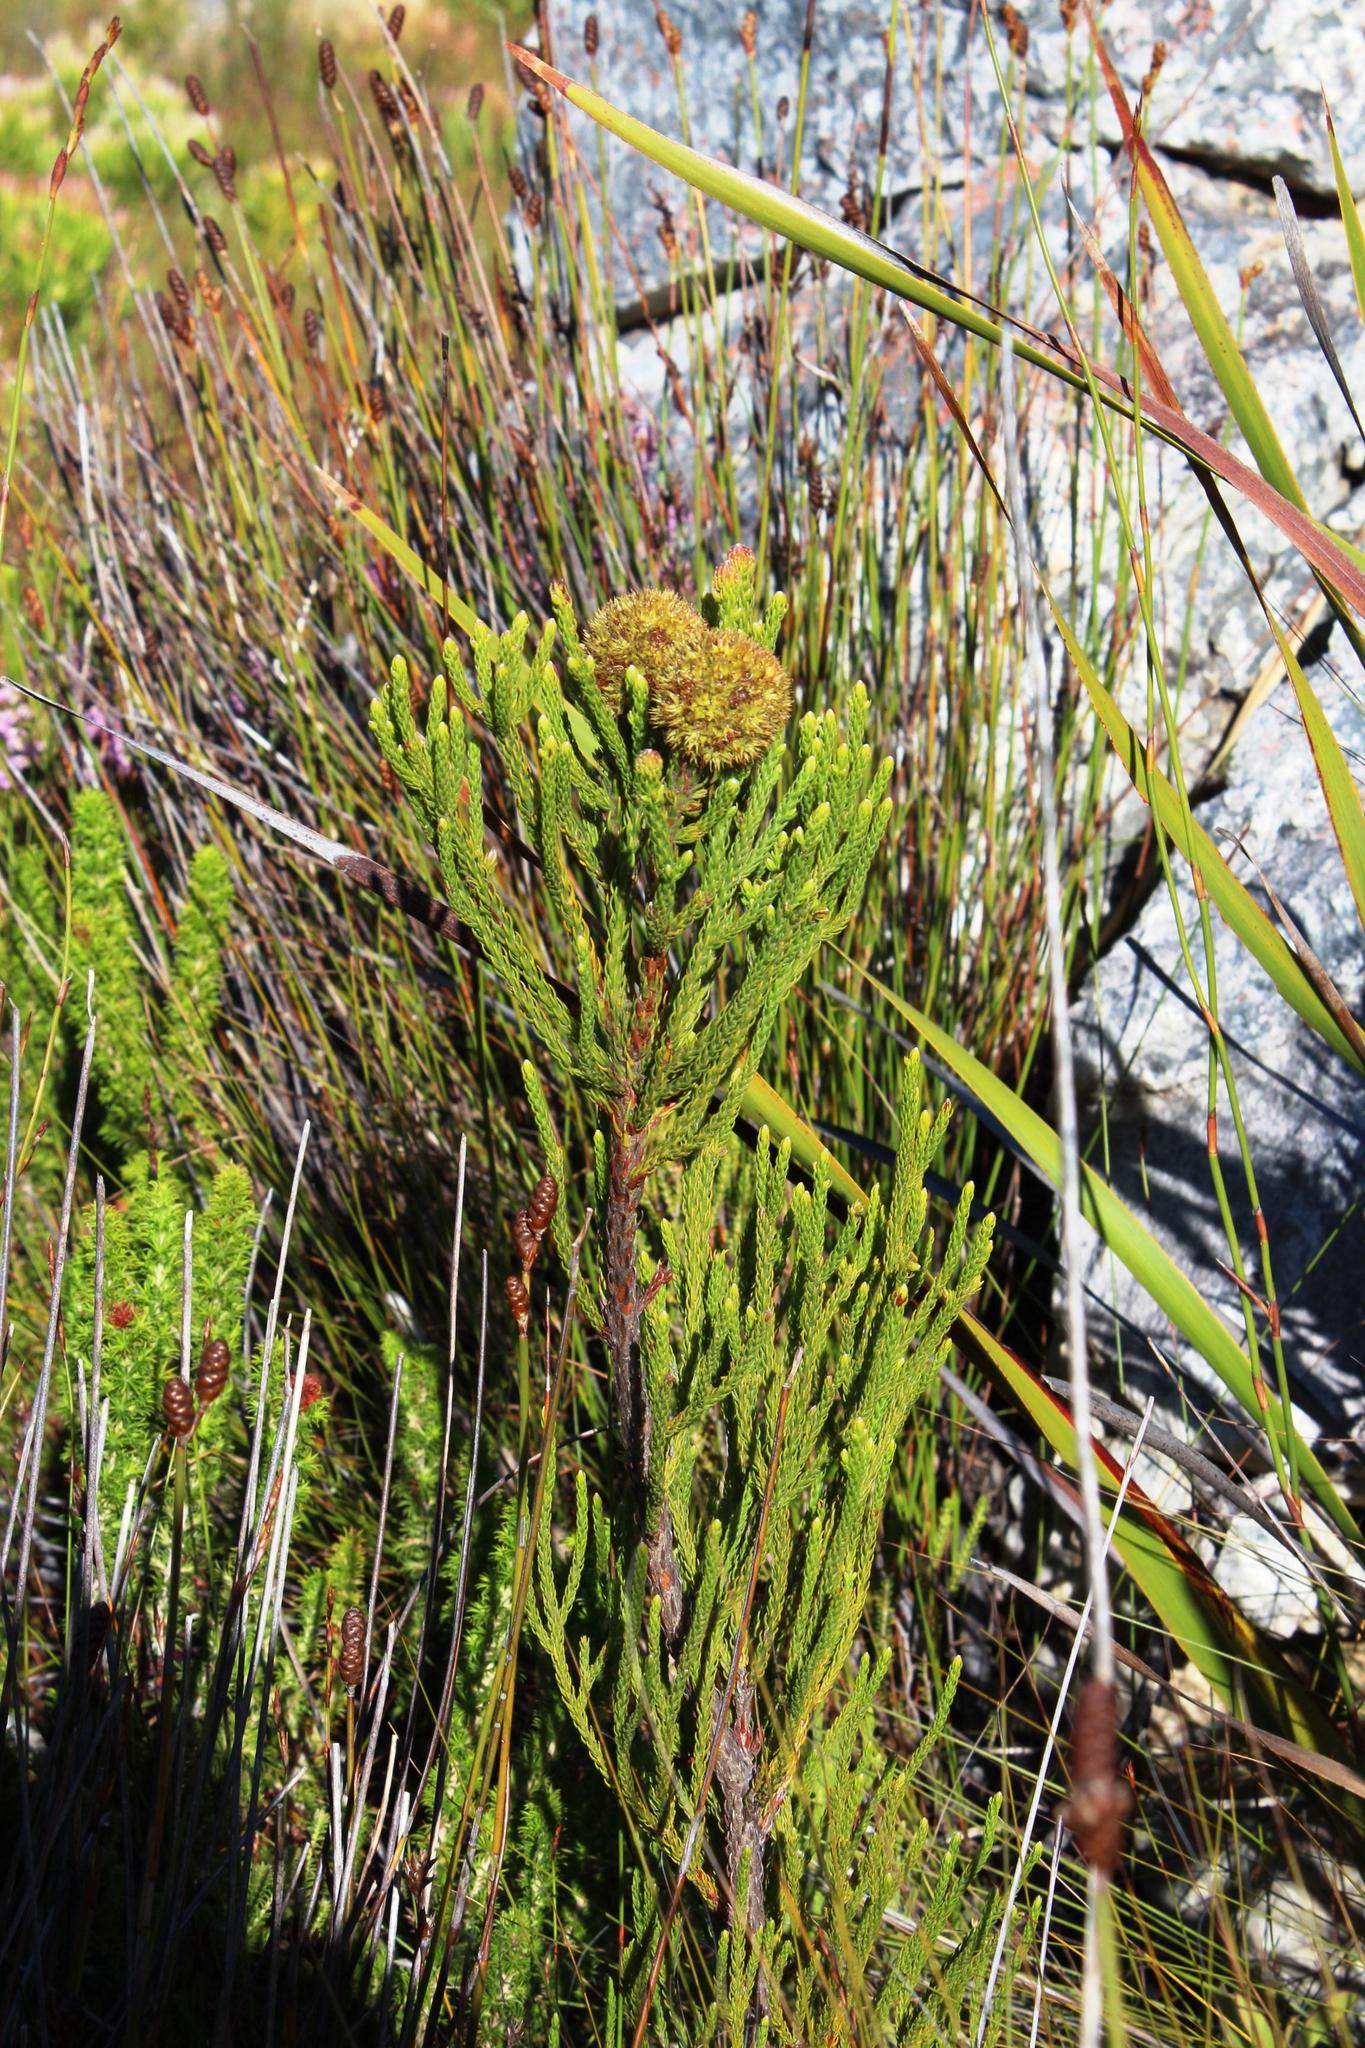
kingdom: Plantae
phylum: Tracheophyta
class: Magnoliopsida
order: Bruniales
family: Bruniaceae
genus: Brunia
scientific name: Brunia fragarioides
